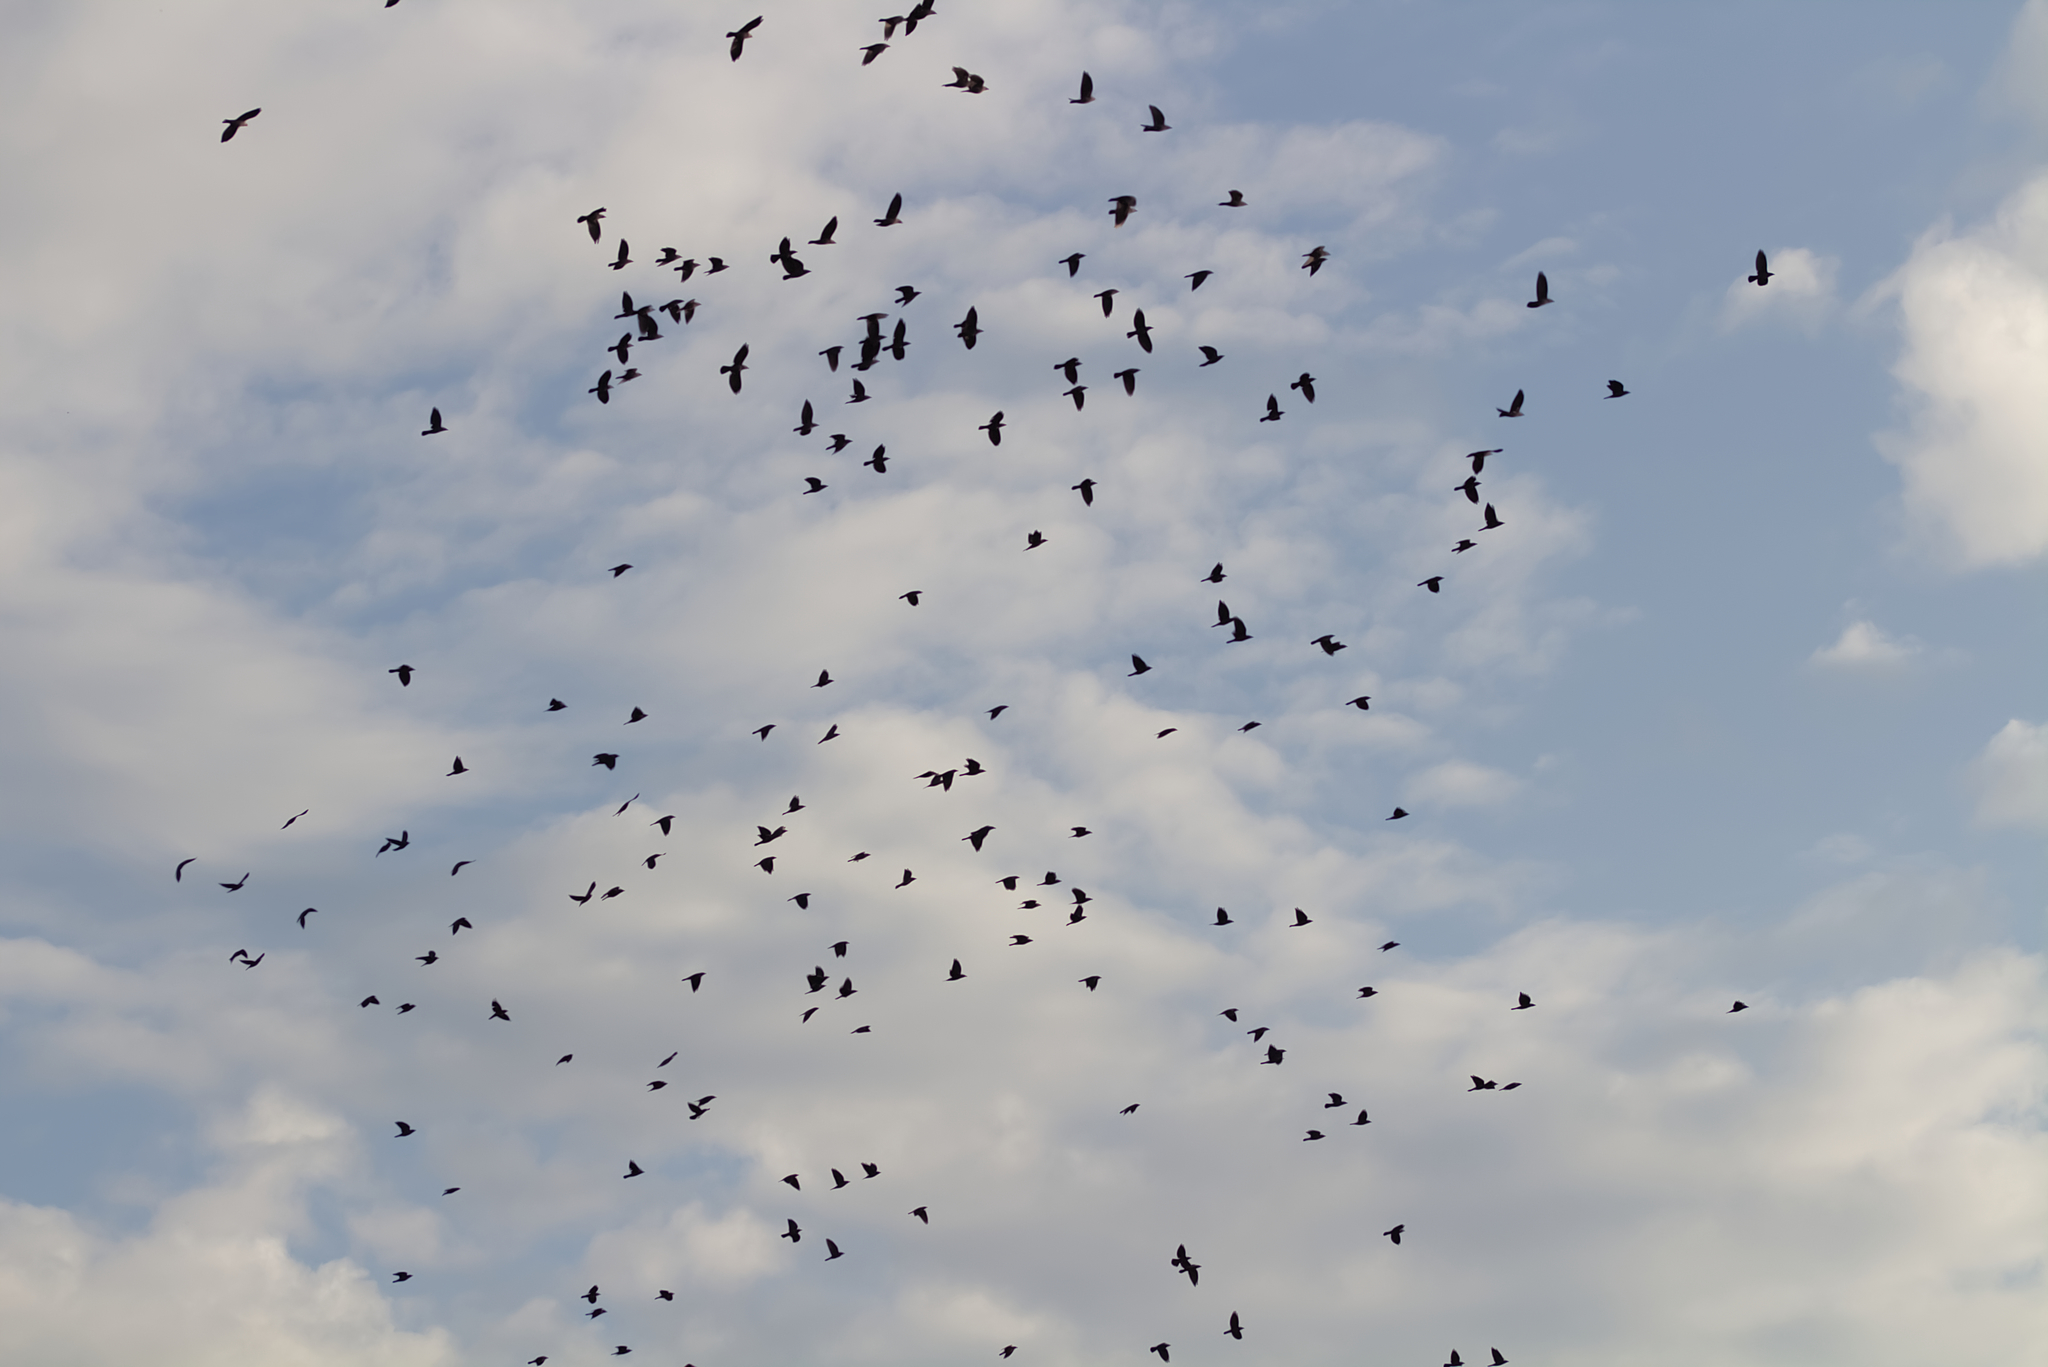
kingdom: Animalia
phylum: Chordata
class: Aves
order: Passeriformes
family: Corvidae
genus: Coloeus
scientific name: Coloeus monedula
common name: Western jackdaw
